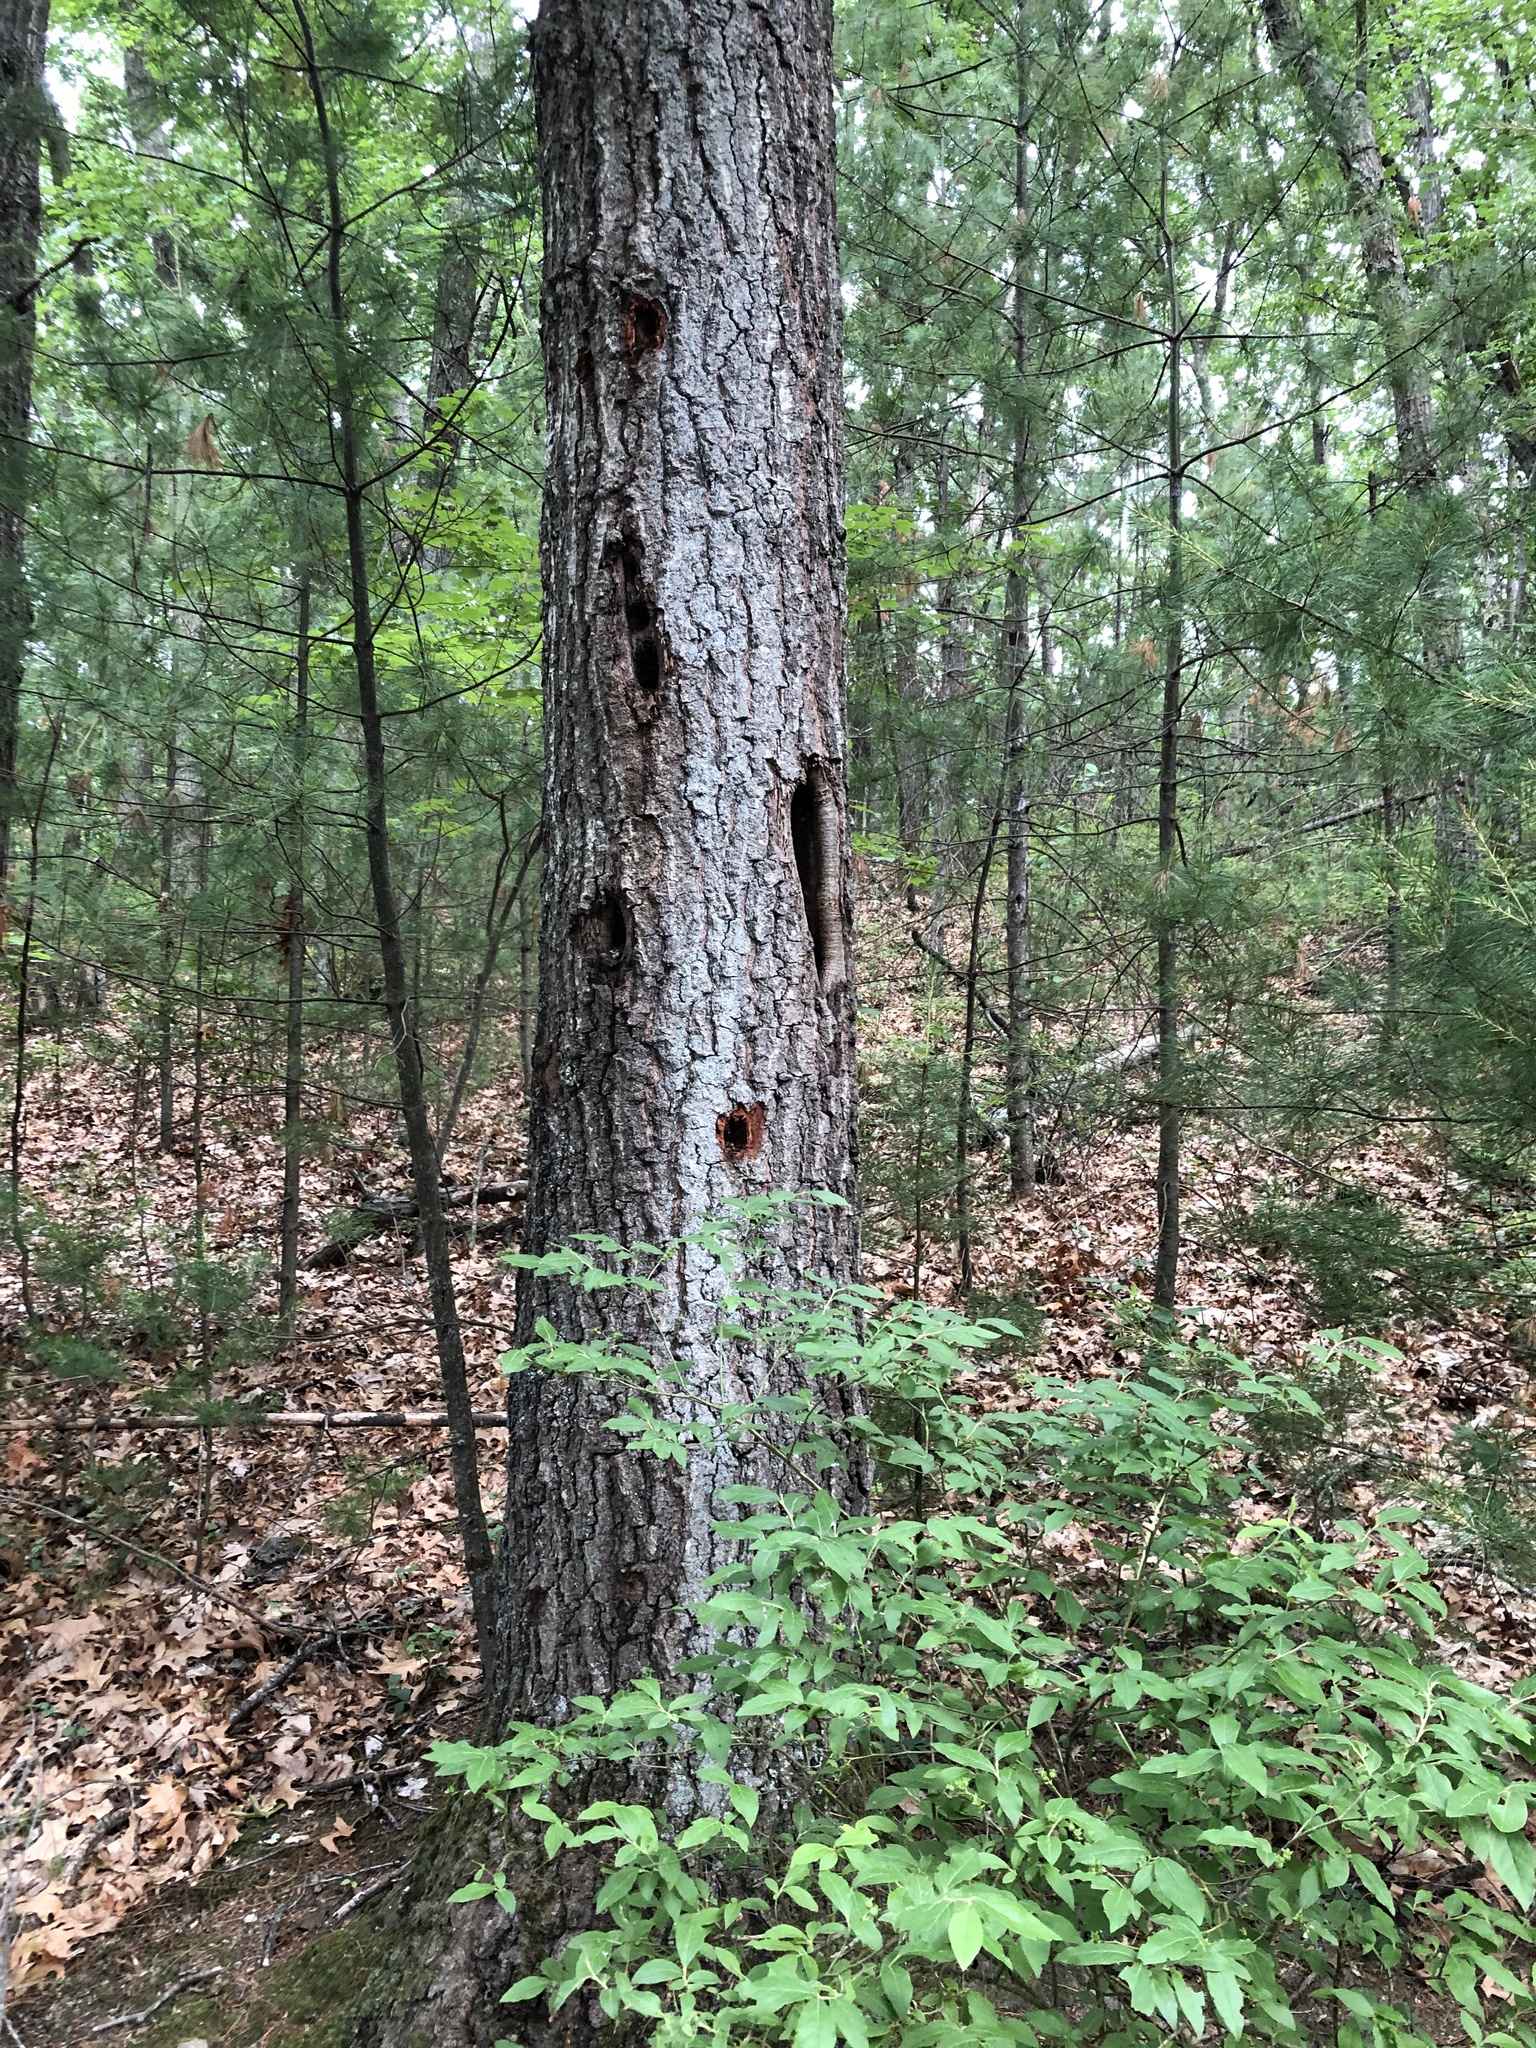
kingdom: Animalia
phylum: Chordata
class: Aves
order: Piciformes
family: Picidae
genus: Dryocopus
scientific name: Dryocopus pileatus
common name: Pileated woodpecker
